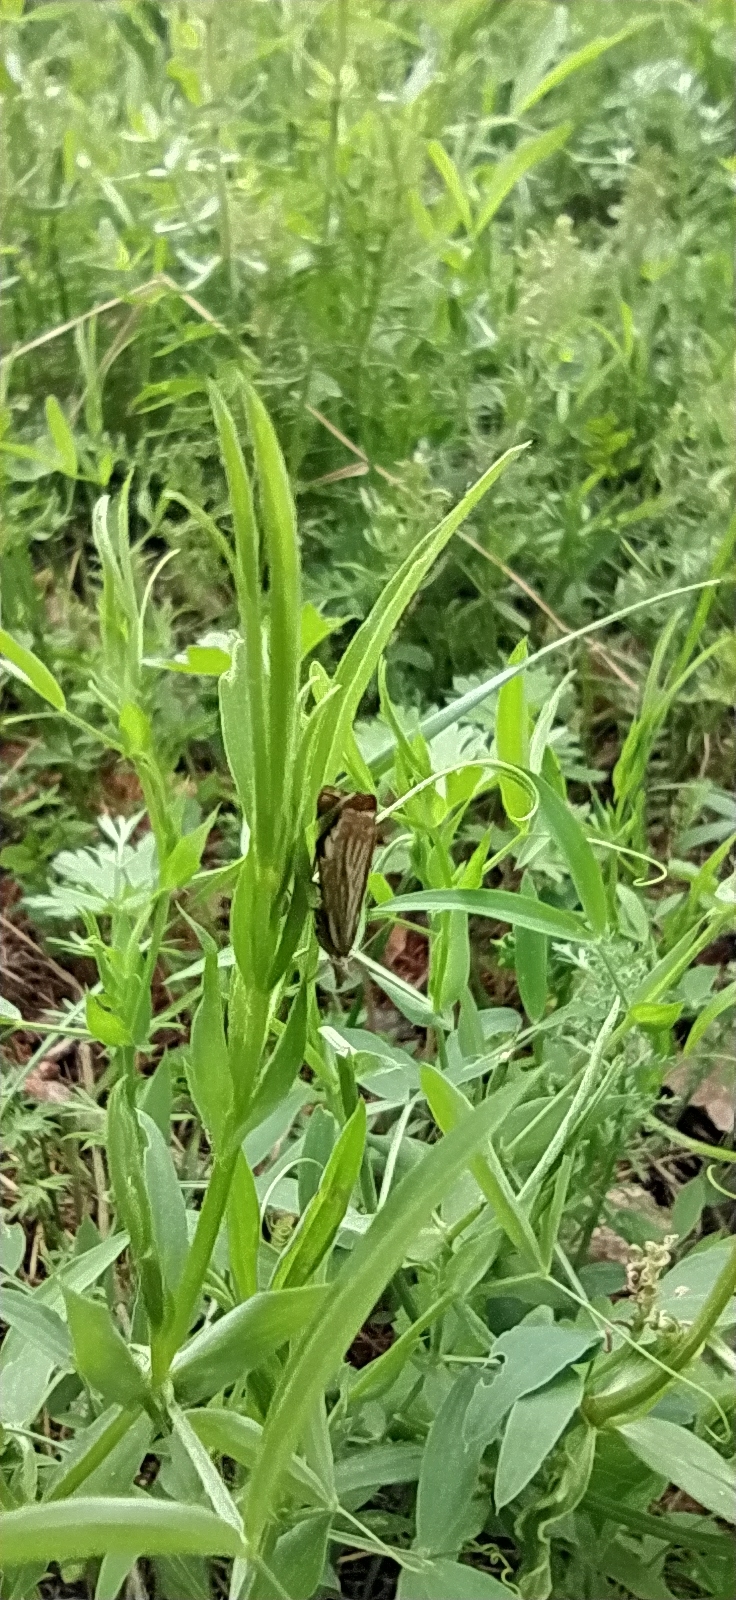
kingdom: Animalia
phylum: Arthropoda
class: Insecta
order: Lepidoptera
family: Crambidae
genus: Chrysoteuchia
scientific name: Chrysoteuchia culmella
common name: Garden grass-veneer
